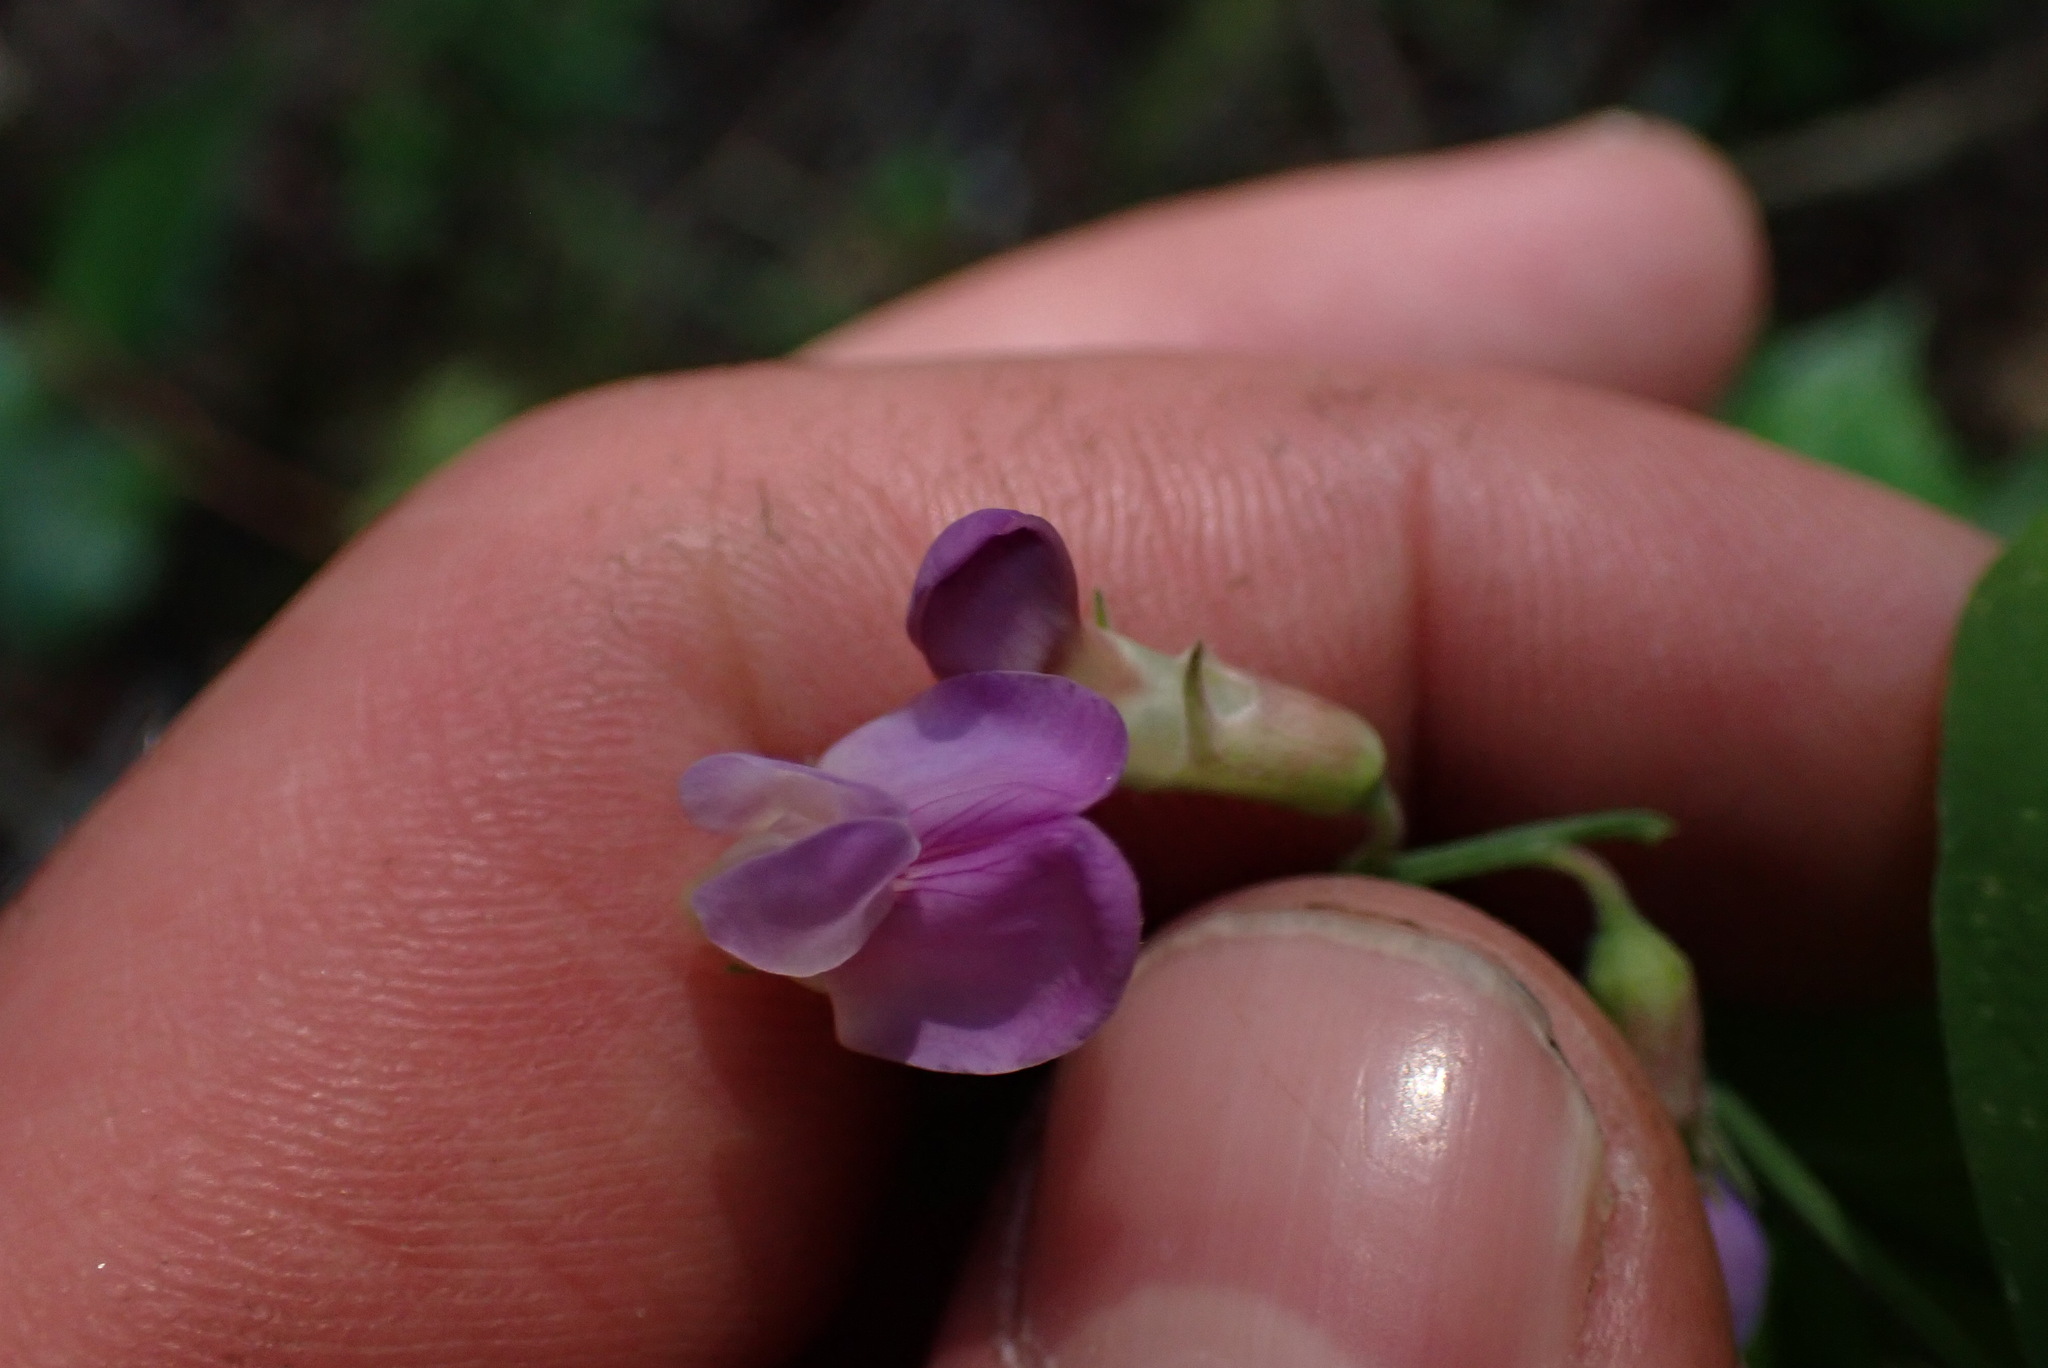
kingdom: Plantae
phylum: Tracheophyta
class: Magnoliopsida
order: Fabales
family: Fabaceae
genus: Lathyrus
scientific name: Lathyrus nevadensis
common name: Sierra nevada peavine
